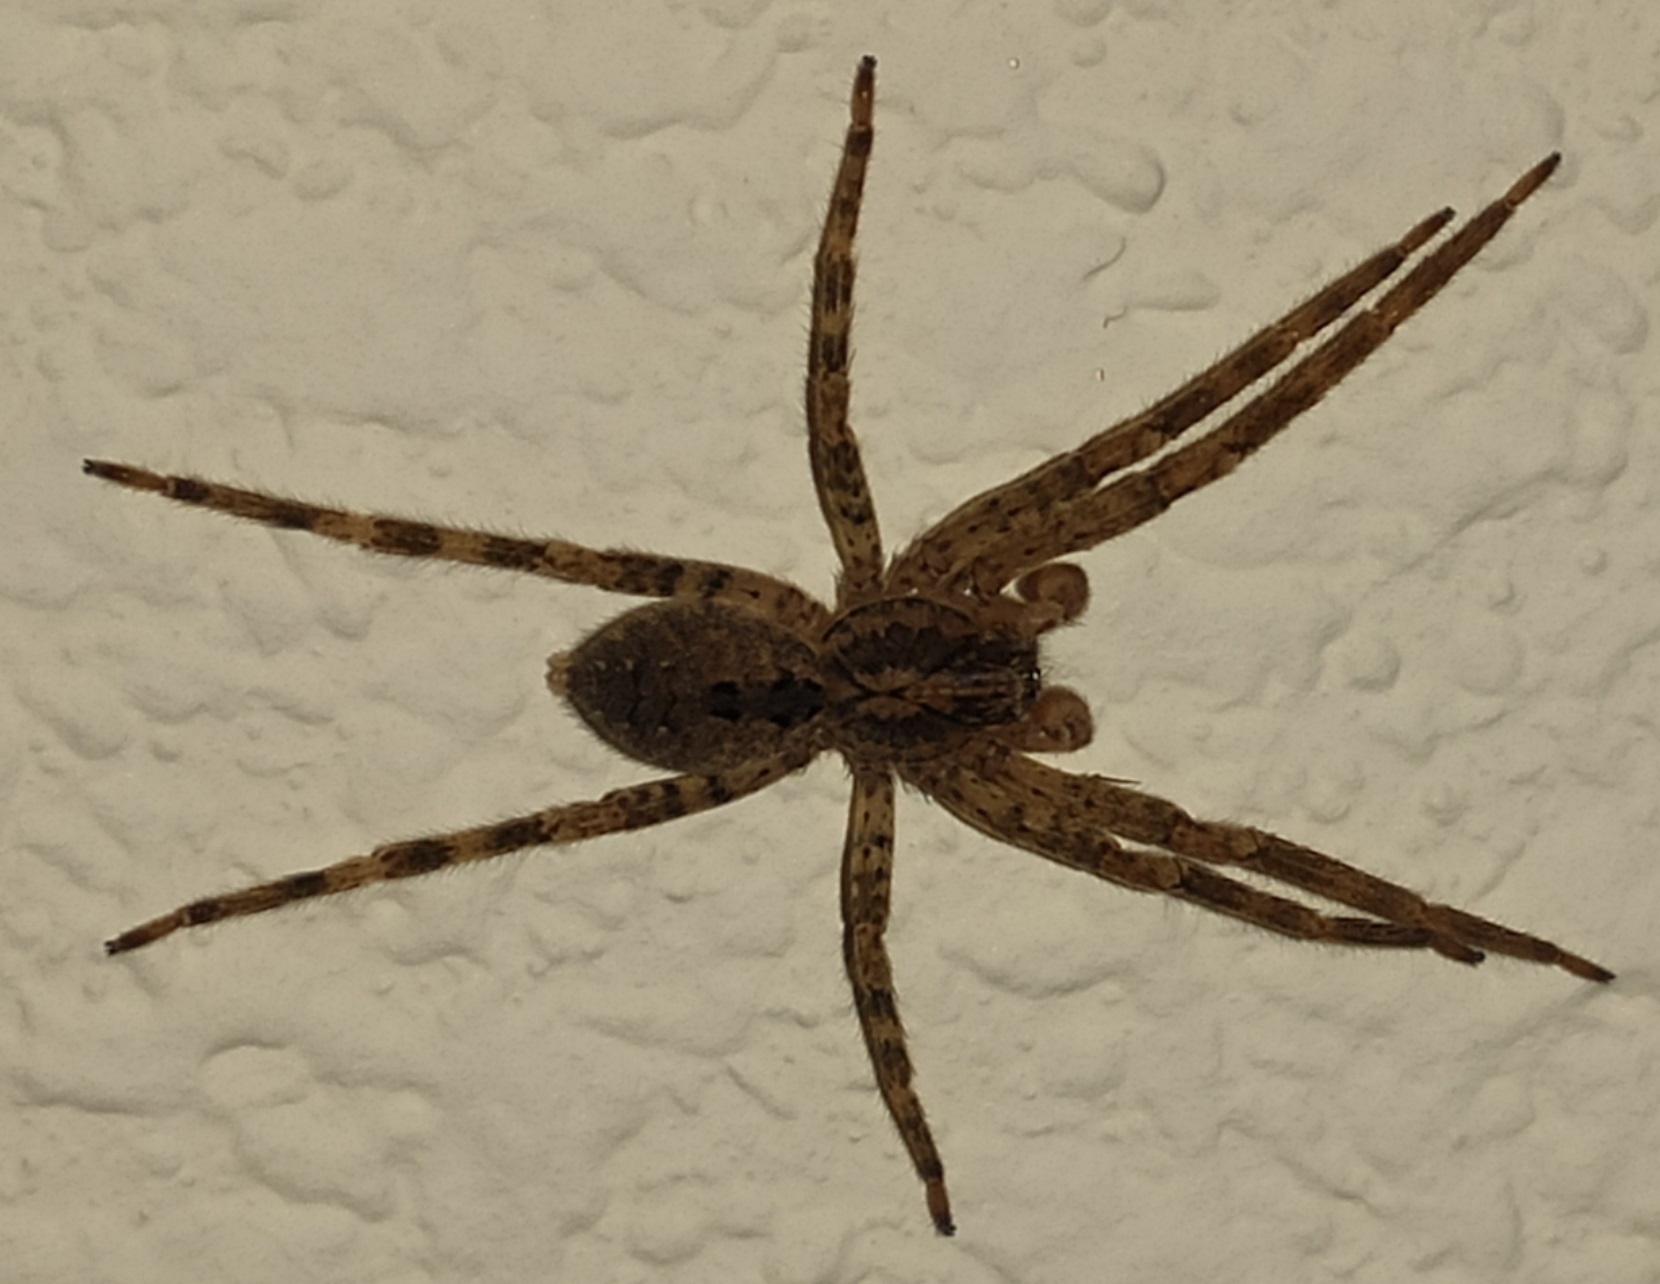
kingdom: Animalia
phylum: Arthropoda
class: Arachnida
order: Araneae
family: Zoropsidae
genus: Zoropsis
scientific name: Zoropsis spinimana
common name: Zoropsid spider
